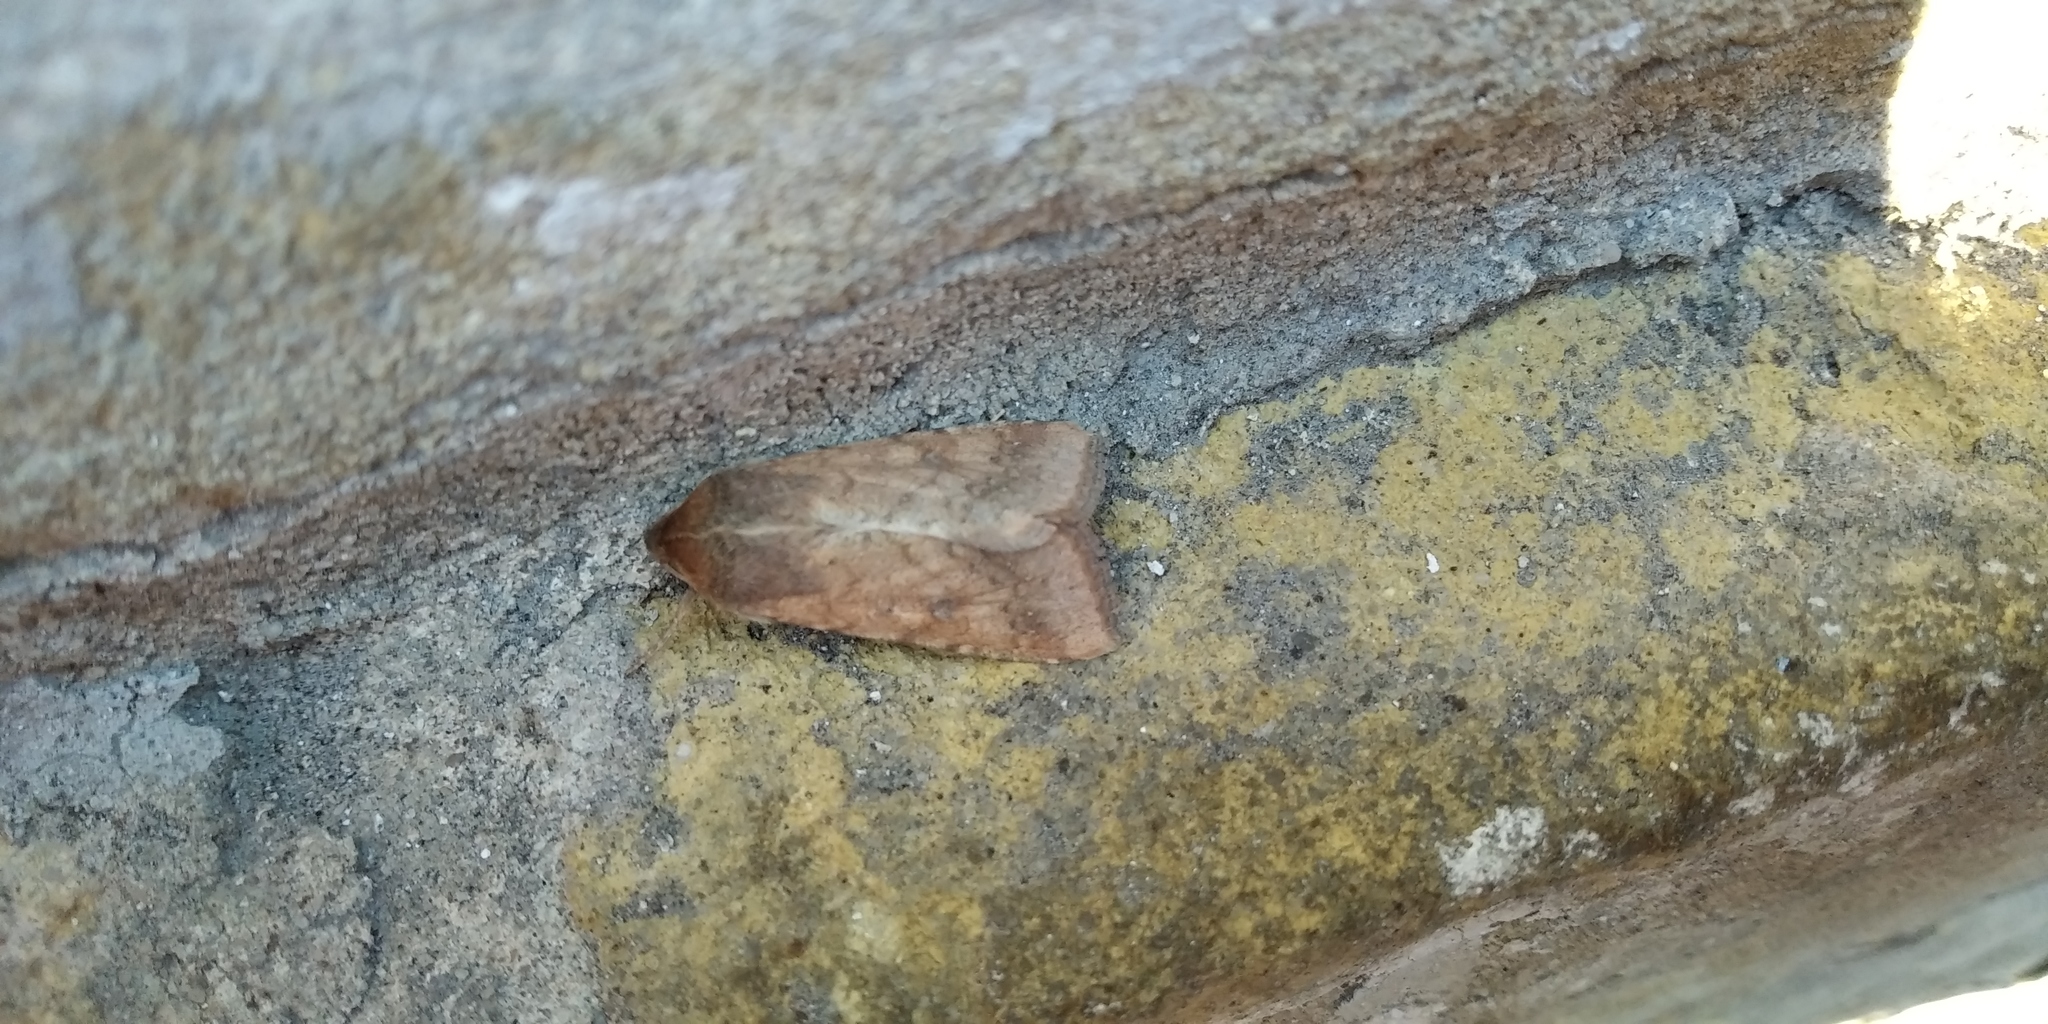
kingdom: Animalia
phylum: Arthropoda
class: Insecta
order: Lepidoptera
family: Noctuidae
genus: Helicoverpa
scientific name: Helicoverpa armigera
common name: Cotton bollworm
